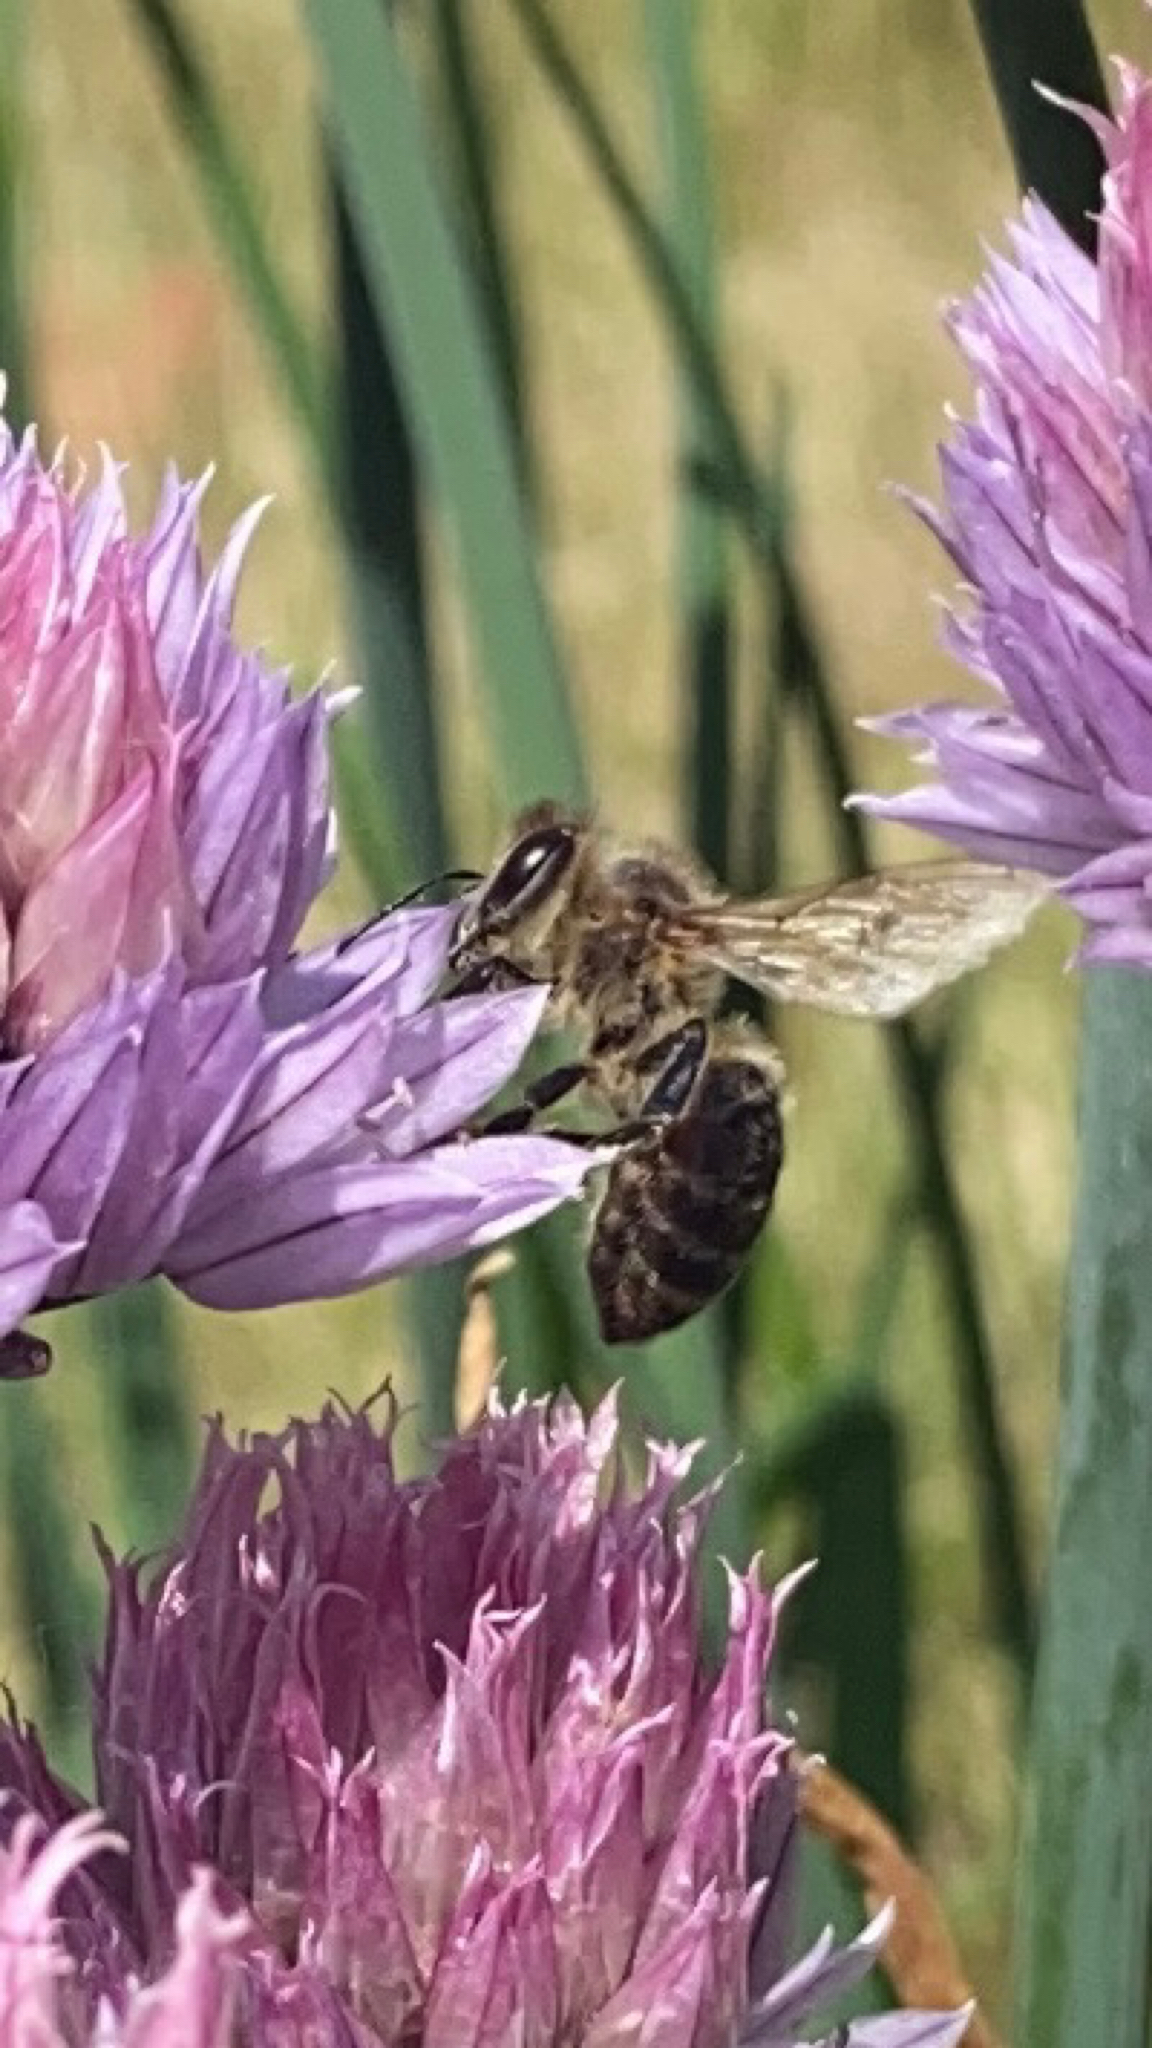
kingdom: Animalia
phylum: Arthropoda
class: Insecta
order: Hymenoptera
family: Apidae
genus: Apis
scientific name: Apis mellifera
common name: Honey bee
